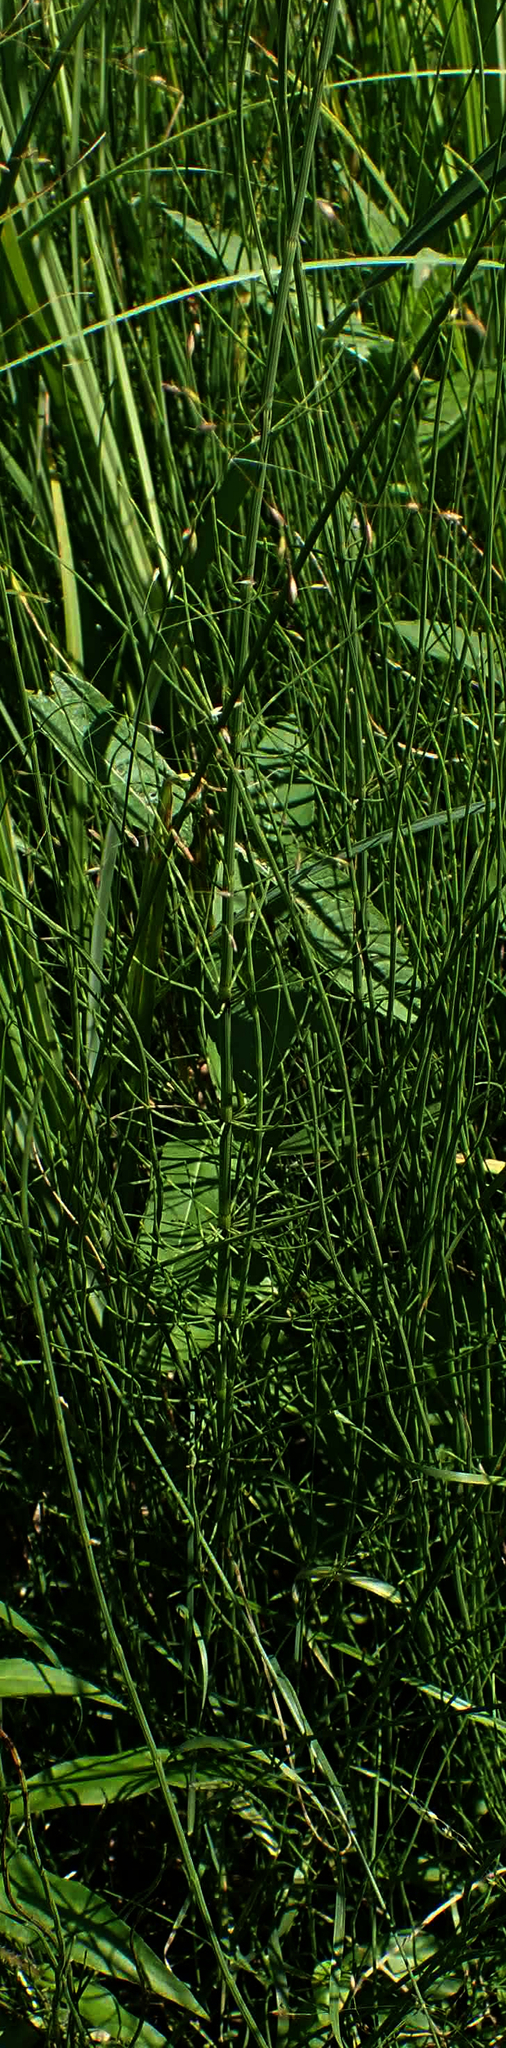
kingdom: Plantae
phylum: Tracheophyta
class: Polypodiopsida
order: Equisetales
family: Equisetaceae
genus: Equisetum
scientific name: Equisetum fluviatile
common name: Water horsetail
